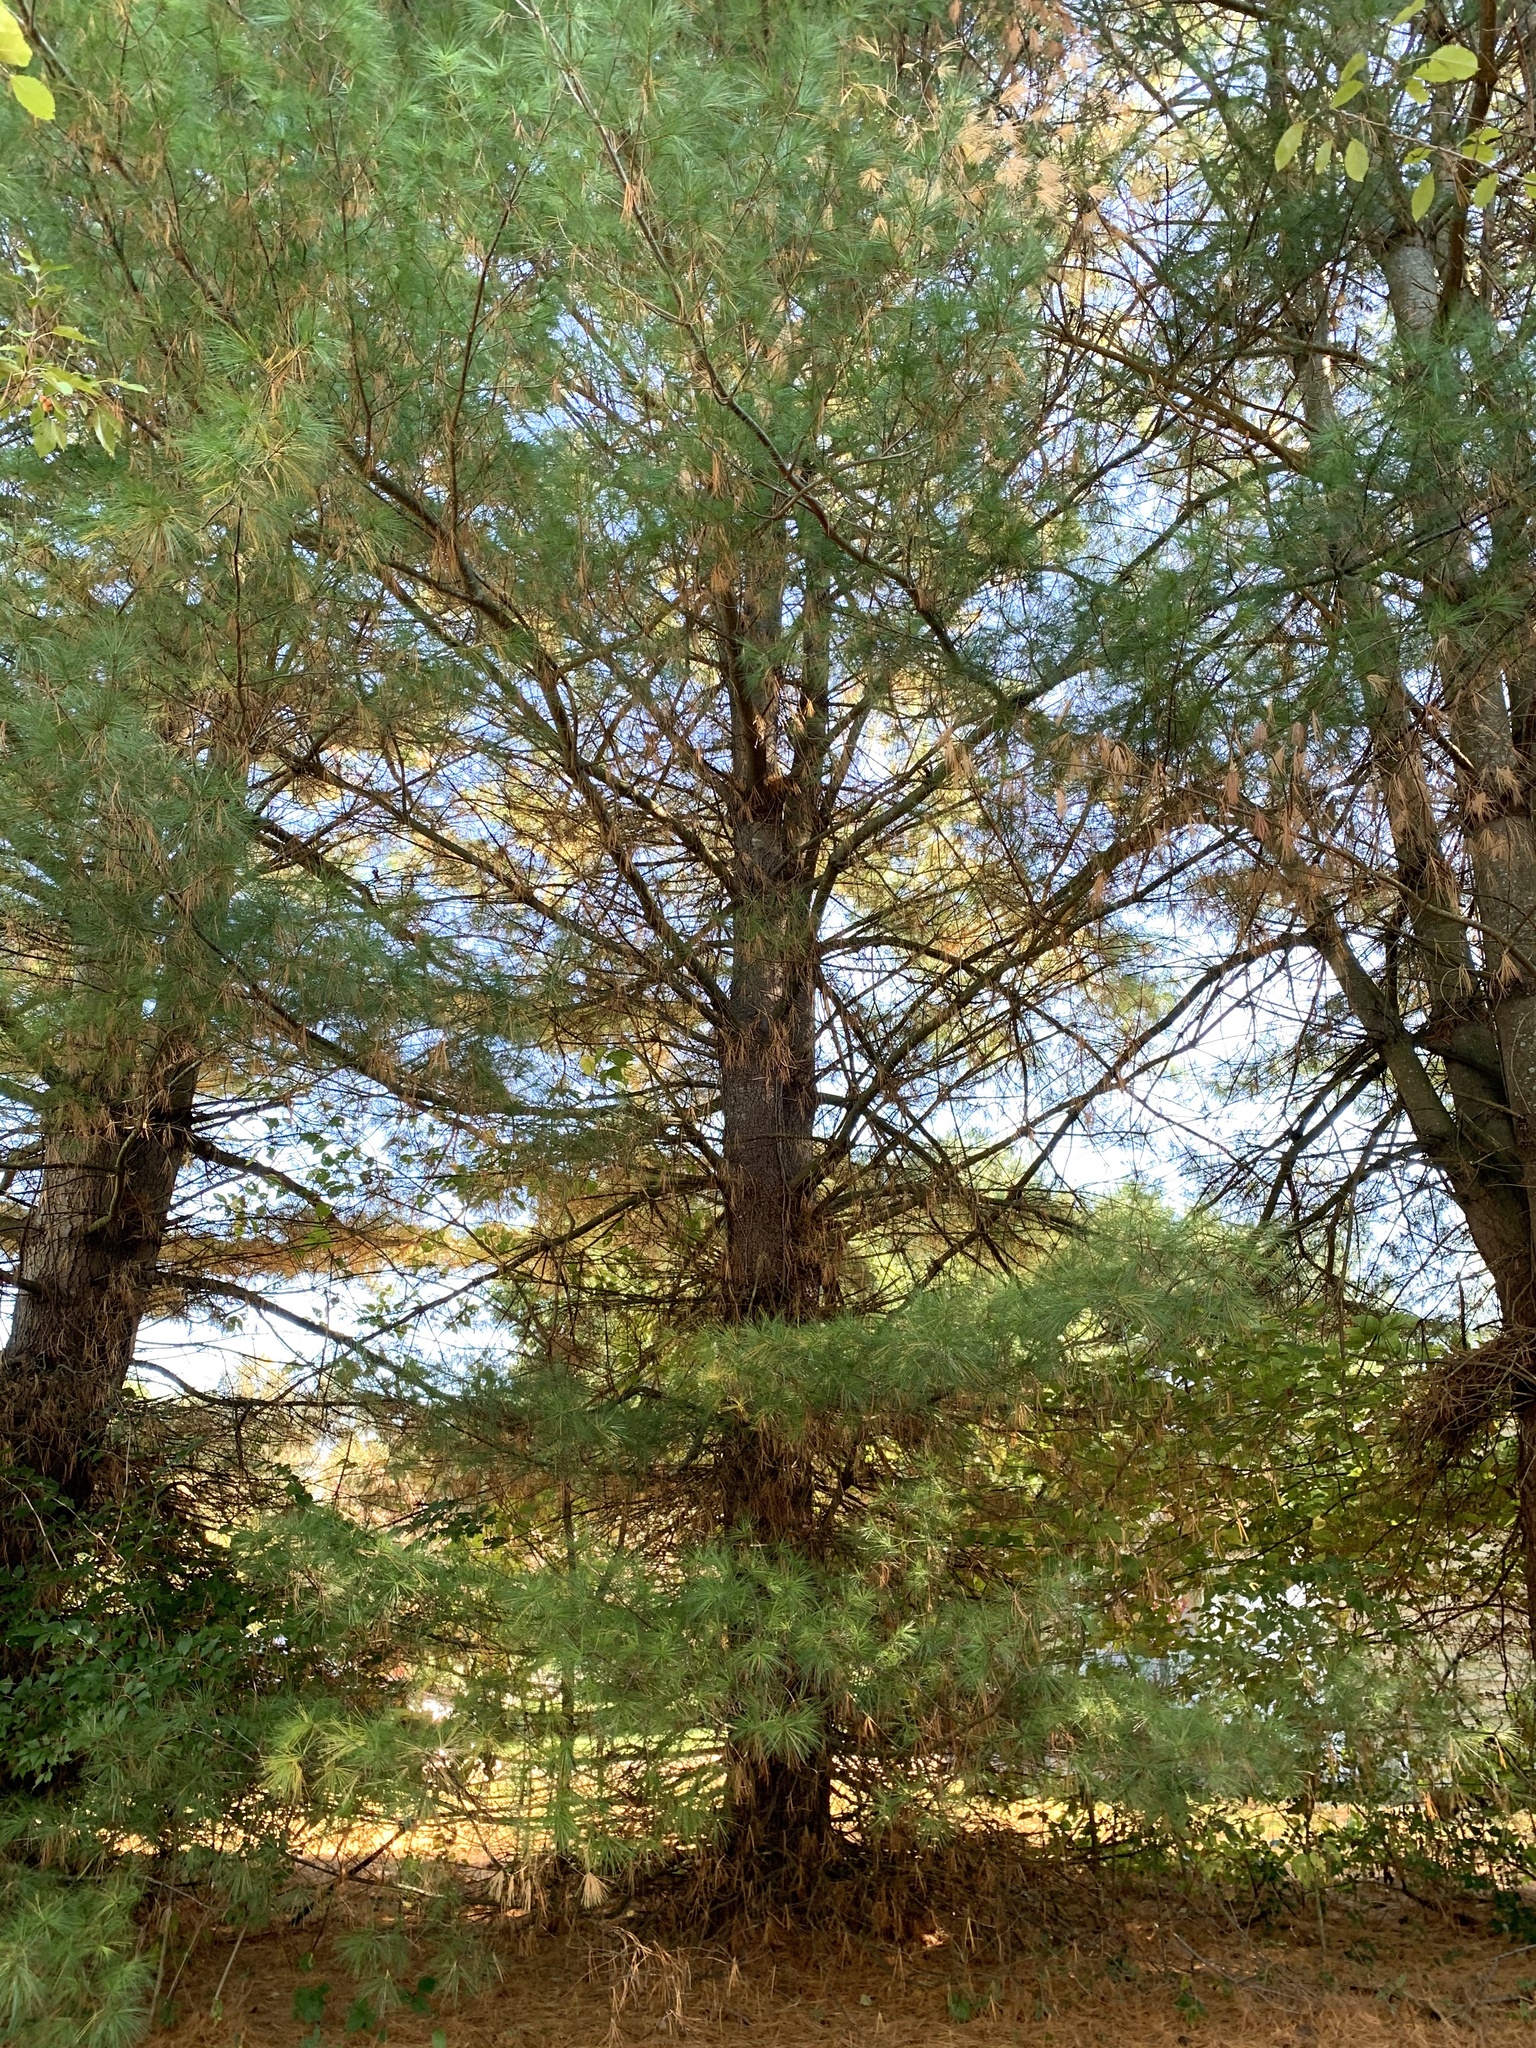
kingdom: Plantae
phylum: Tracheophyta
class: Pinopsida
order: Pinales
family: Pinaceae
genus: Pinus
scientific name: Pinus strobus
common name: Weymouth pine
